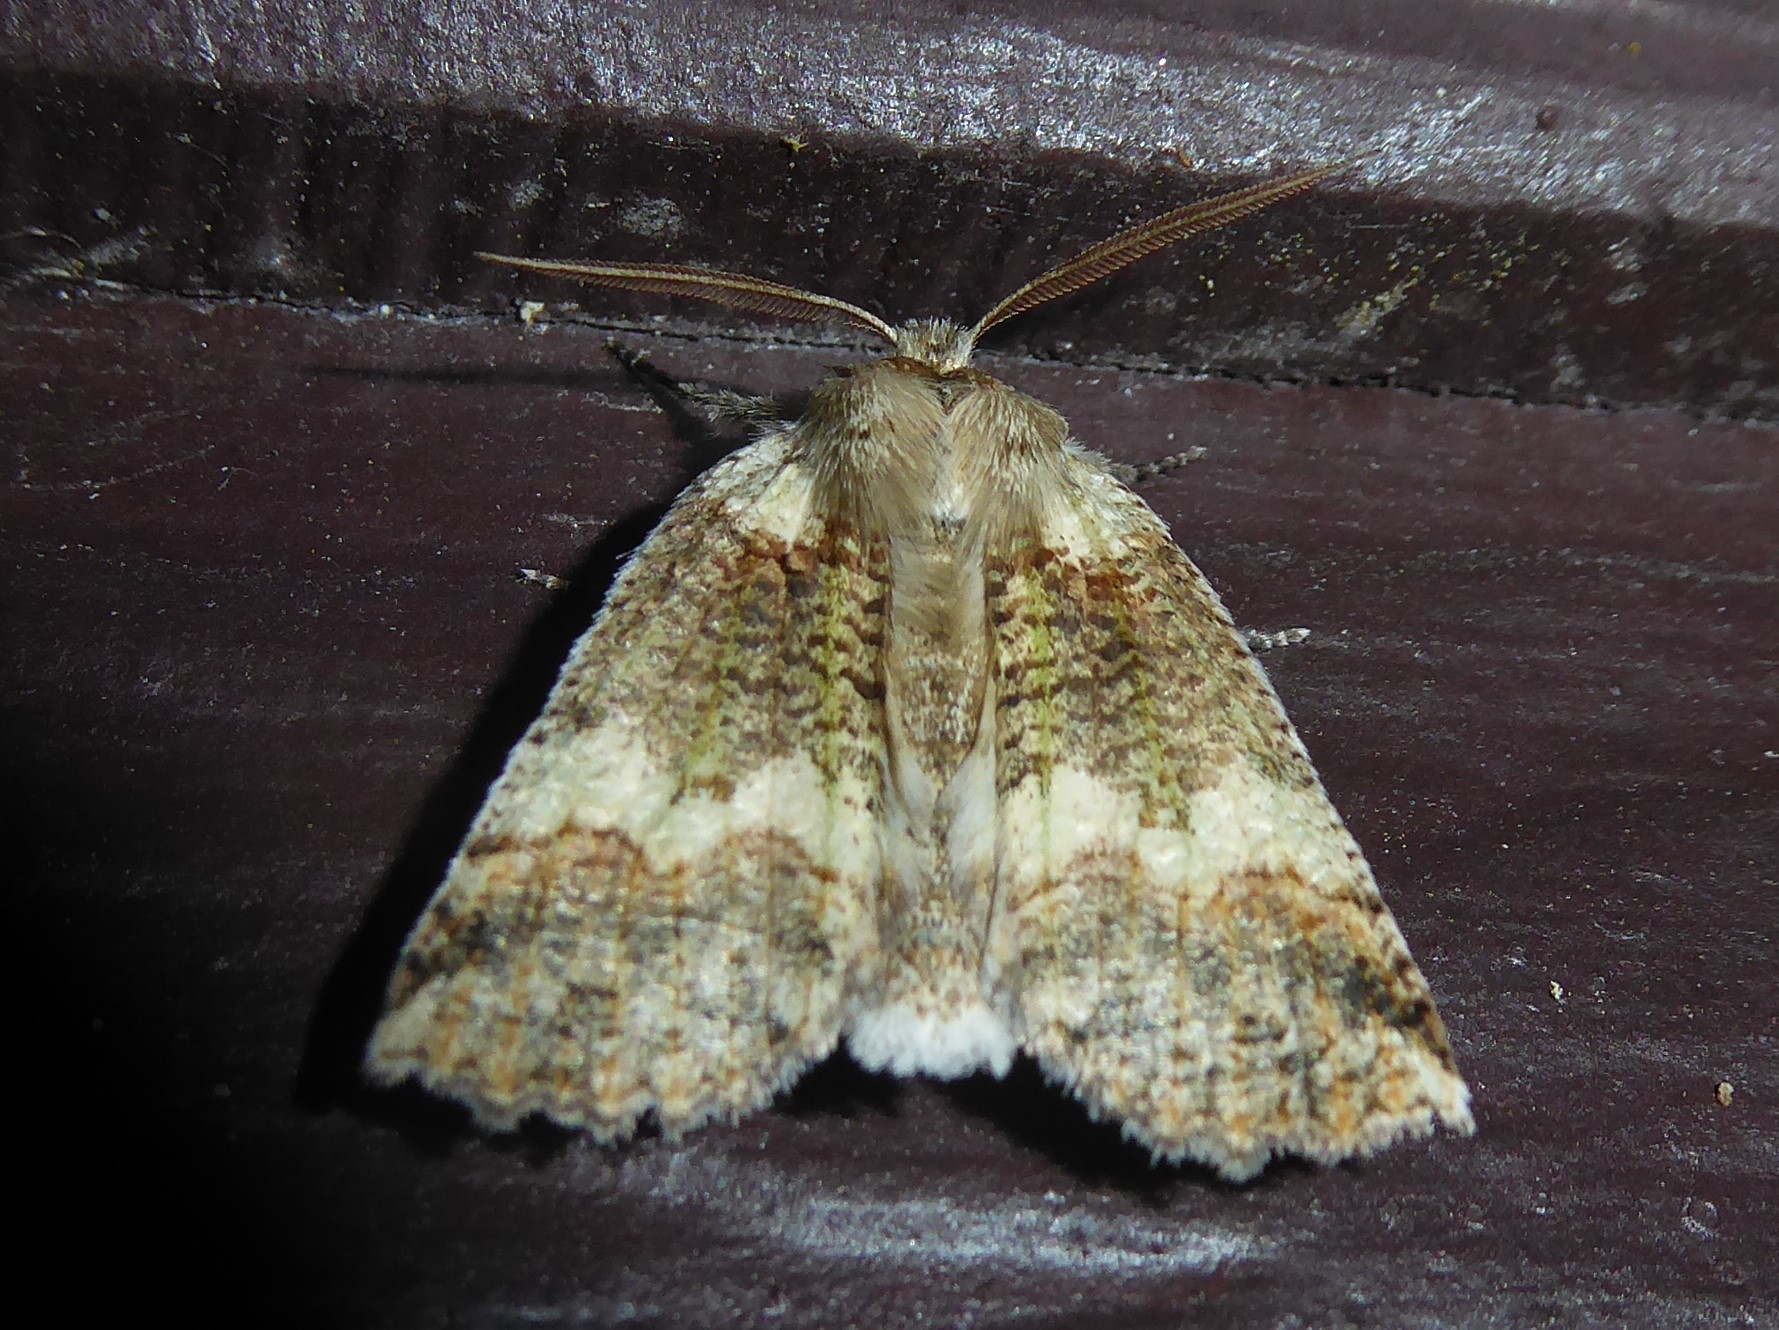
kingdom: Animalia
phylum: Arthropoda
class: Insecta
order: Lepidoptera
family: Geometridae
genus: Declana
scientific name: Declana floccosa
